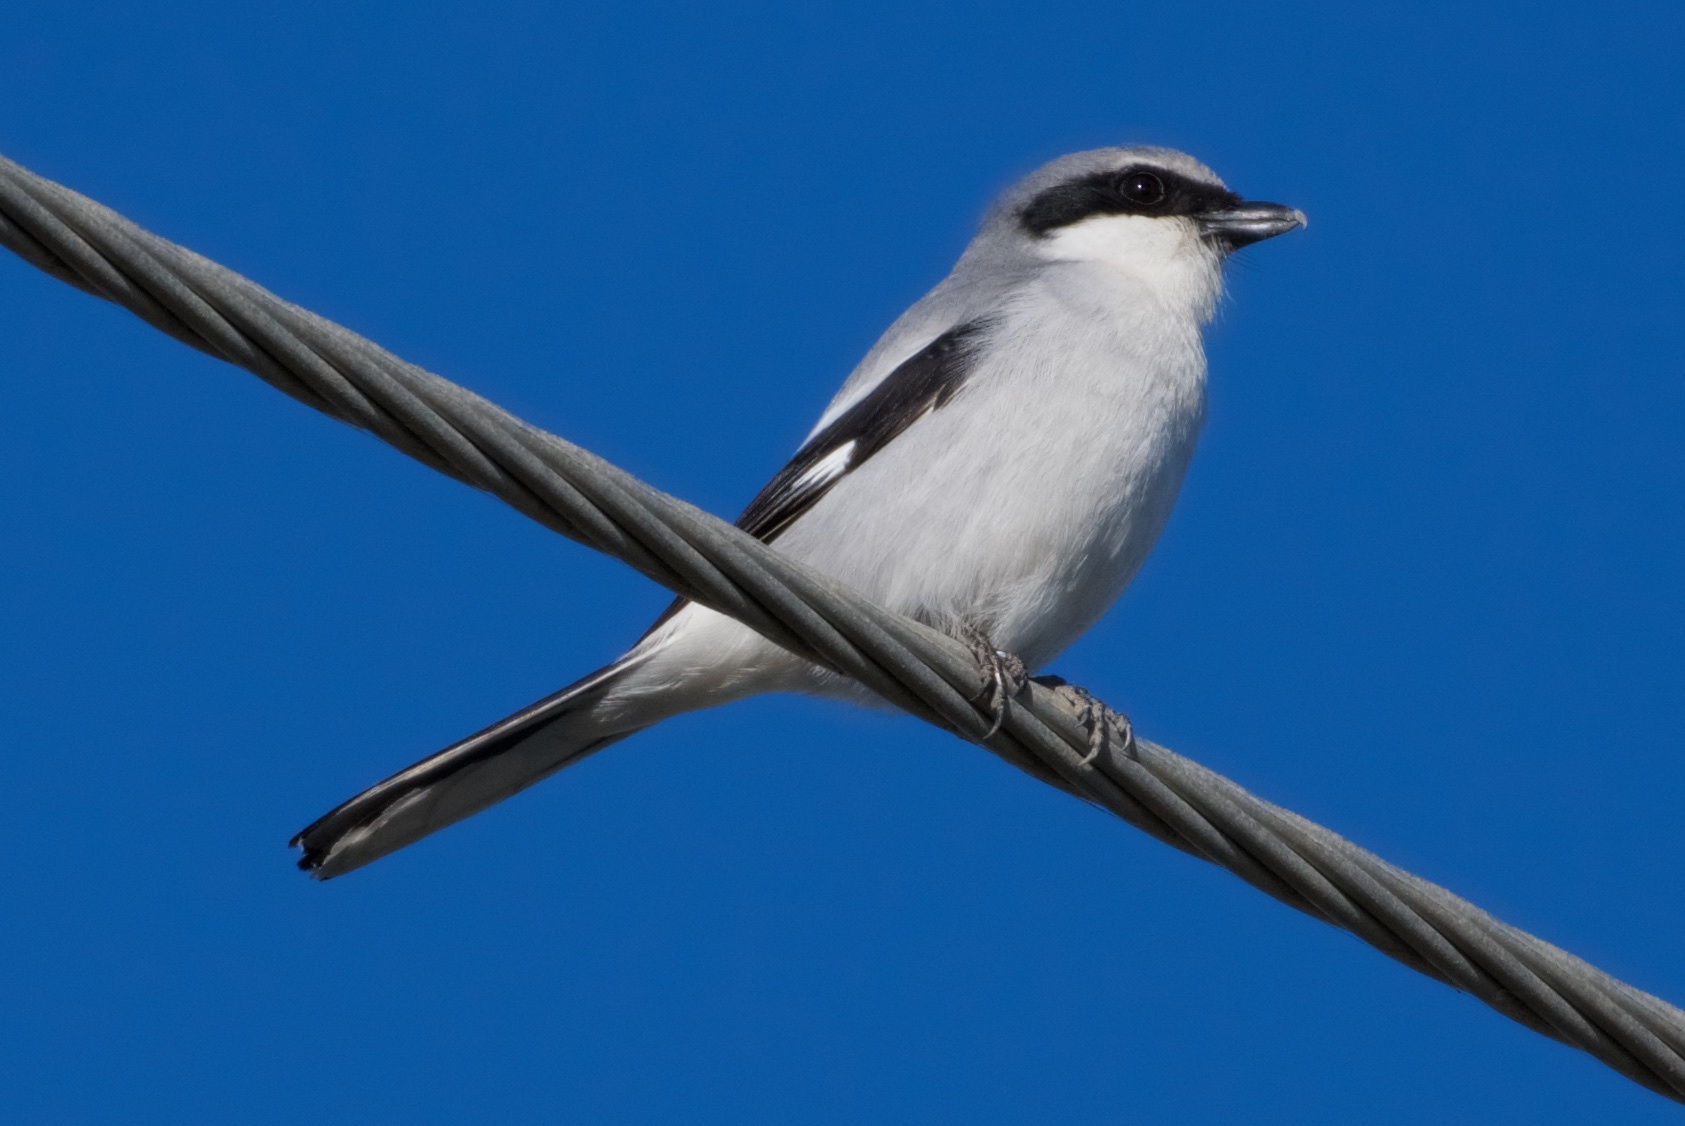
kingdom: Animalia
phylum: Chordata
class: Aves
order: Passeriformes
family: Laniidae
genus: Lanius
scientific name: Lanius ludovicianus
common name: Loggerhead shrike
